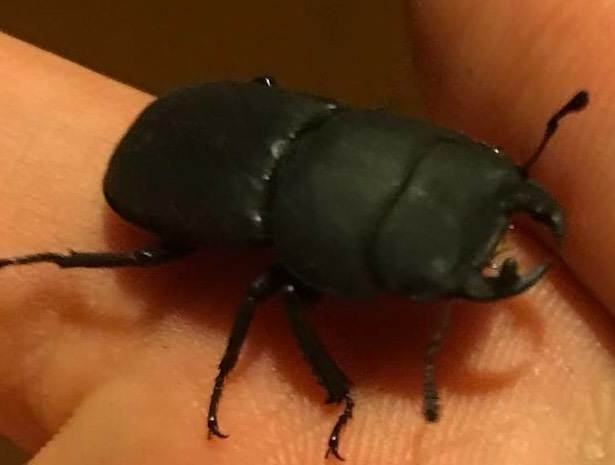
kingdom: Animalia
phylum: Arthropoda
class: Insecta
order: Coleoptera
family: Lucanidae
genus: Dorcus
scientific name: Dorcus parallelipipedus
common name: Lesser stag beetle
